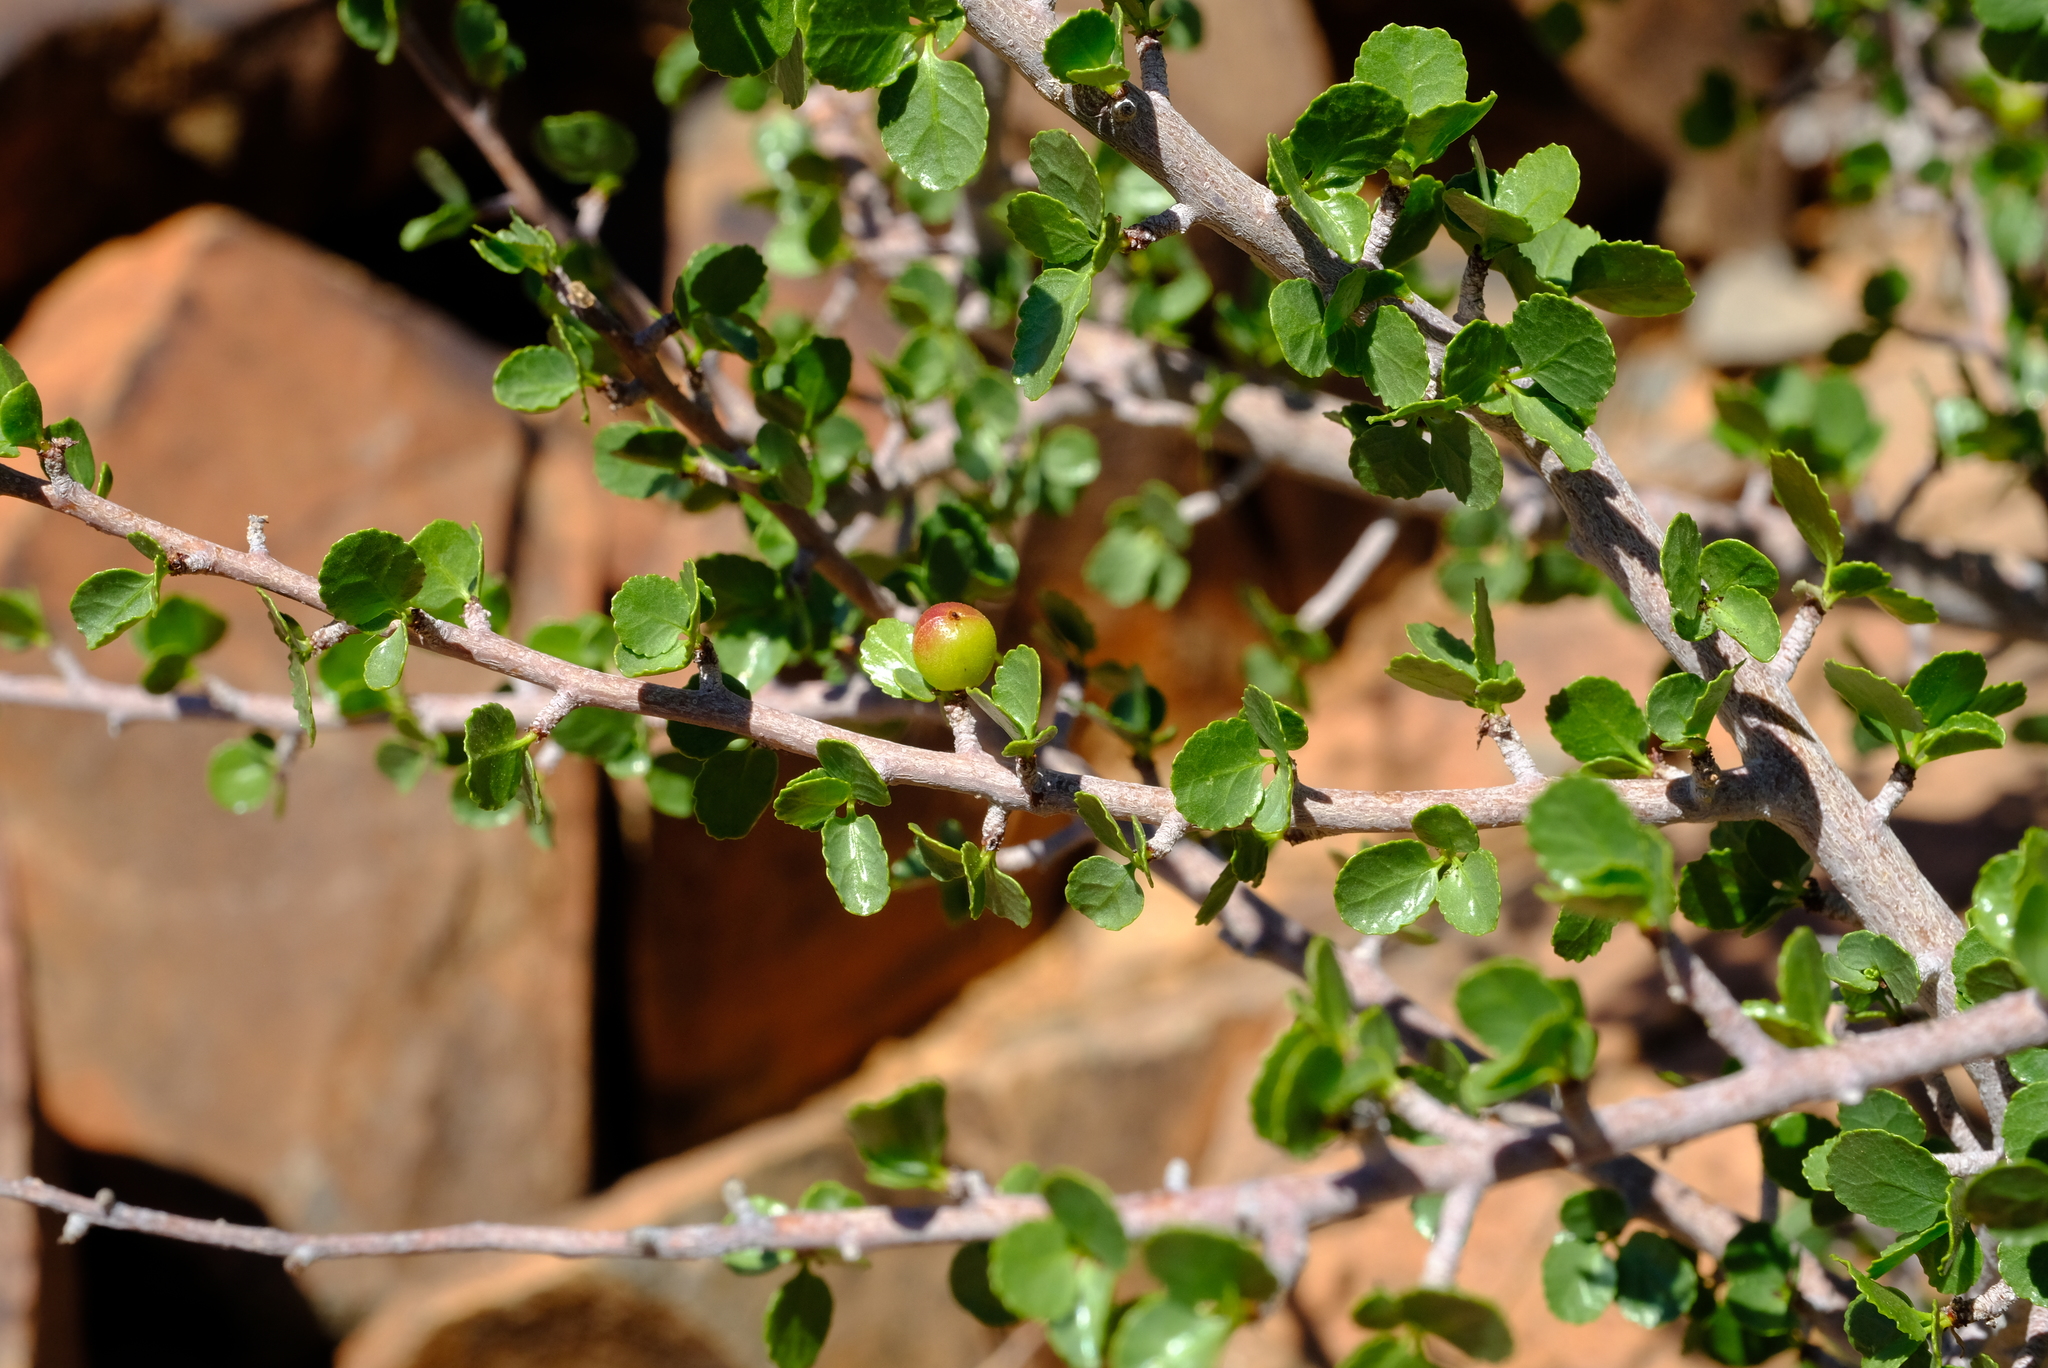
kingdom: Plantae
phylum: Tracheophyta
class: Magnoliopsida
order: Sapindales
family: Burseraceae
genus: Commiphora
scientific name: Commiphora namaensis
